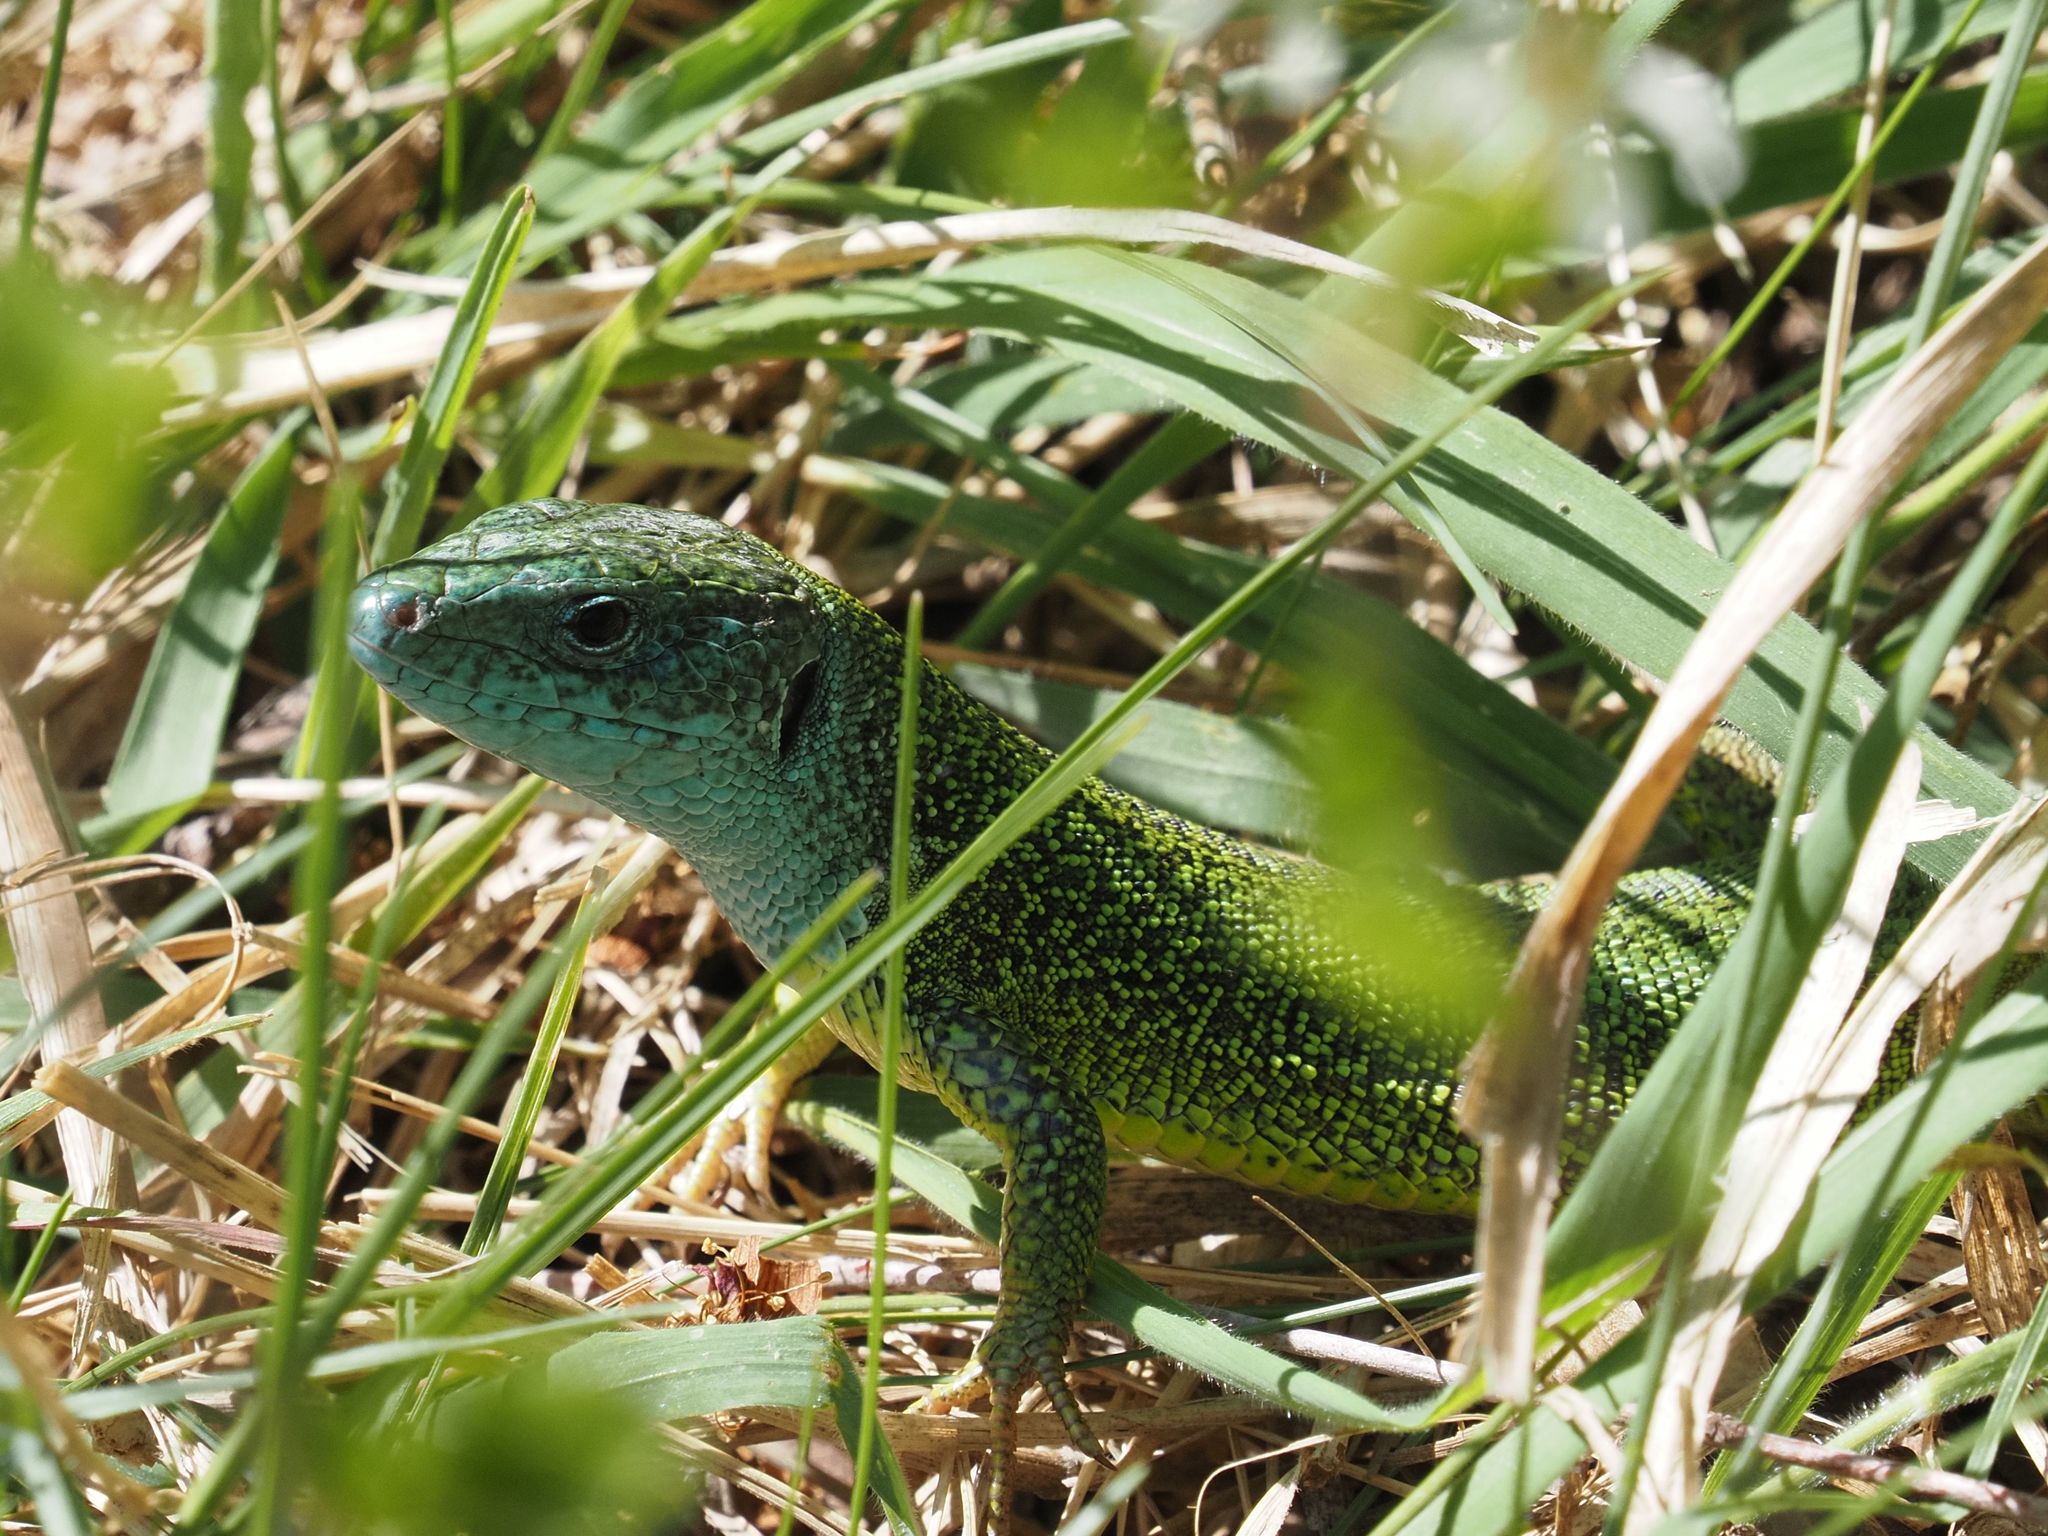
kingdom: Animalia
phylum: Chordata
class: Squamata
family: Lacertidae
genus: Lacerta
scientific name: Lacerta viridis
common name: European green lizard
